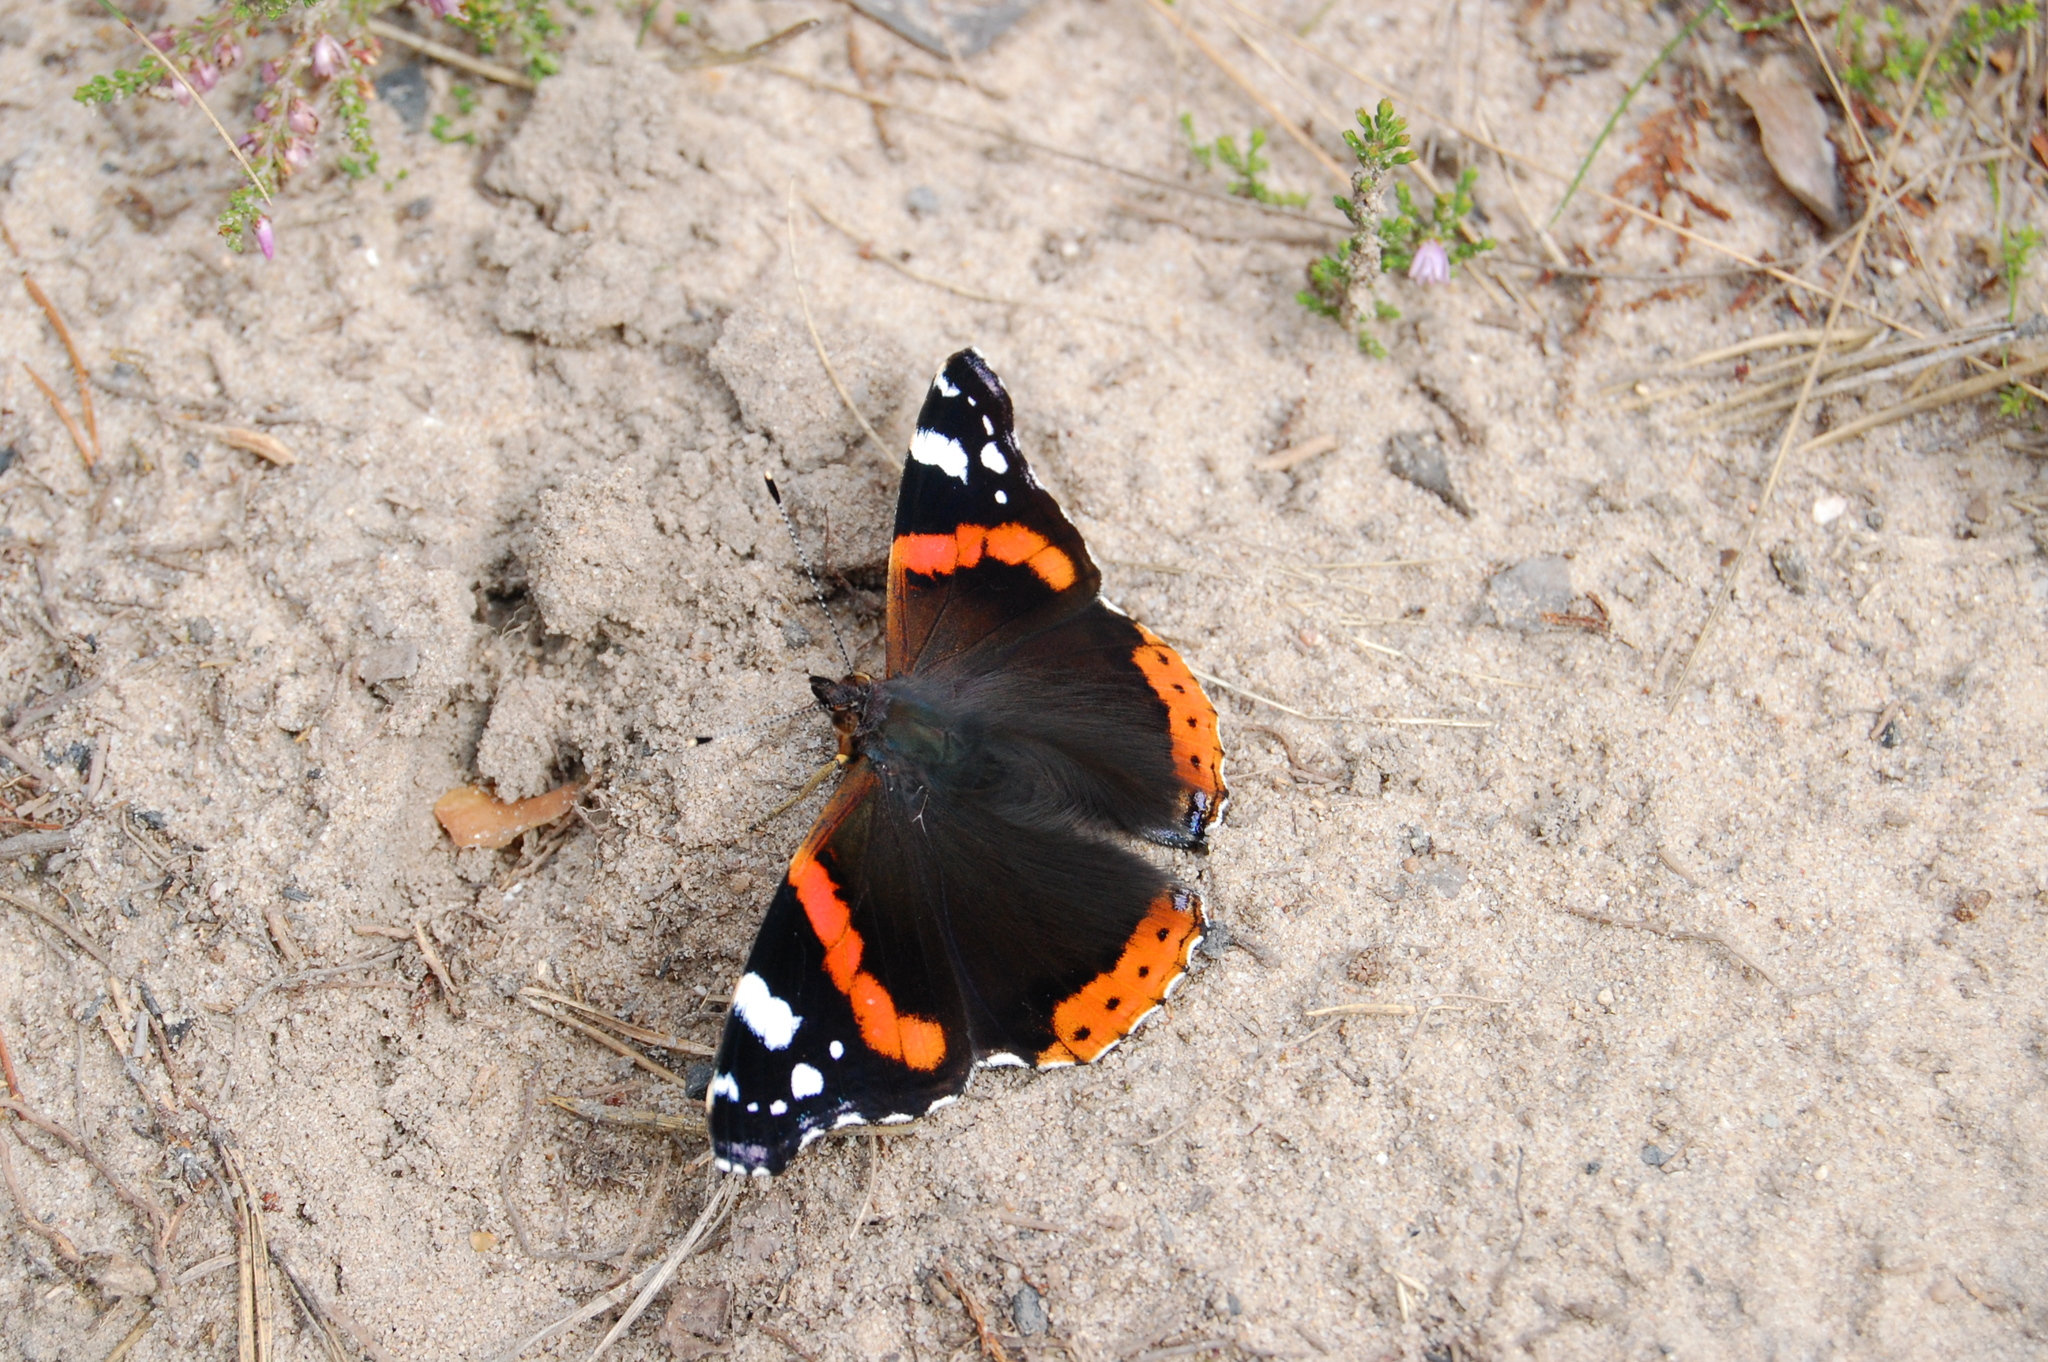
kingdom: Animalia
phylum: Arthropoda
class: Insecta
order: Lepidoptera
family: Nymphalidae
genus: Vanessa
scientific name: Vanessa atalanta
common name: Red admiral
